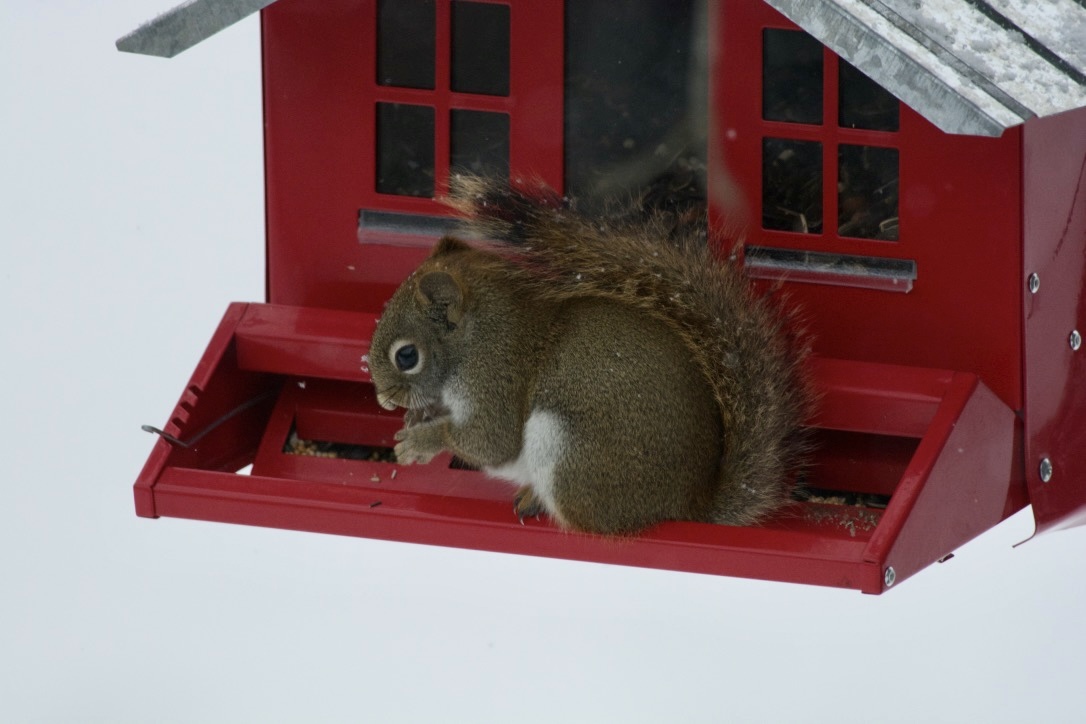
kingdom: Animalia
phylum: Chordata
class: Mammalia
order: Rodentia
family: Sciuridae
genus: Tamiasciurus
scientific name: Tamiasciurus hudsonicus
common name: Red squirrel
